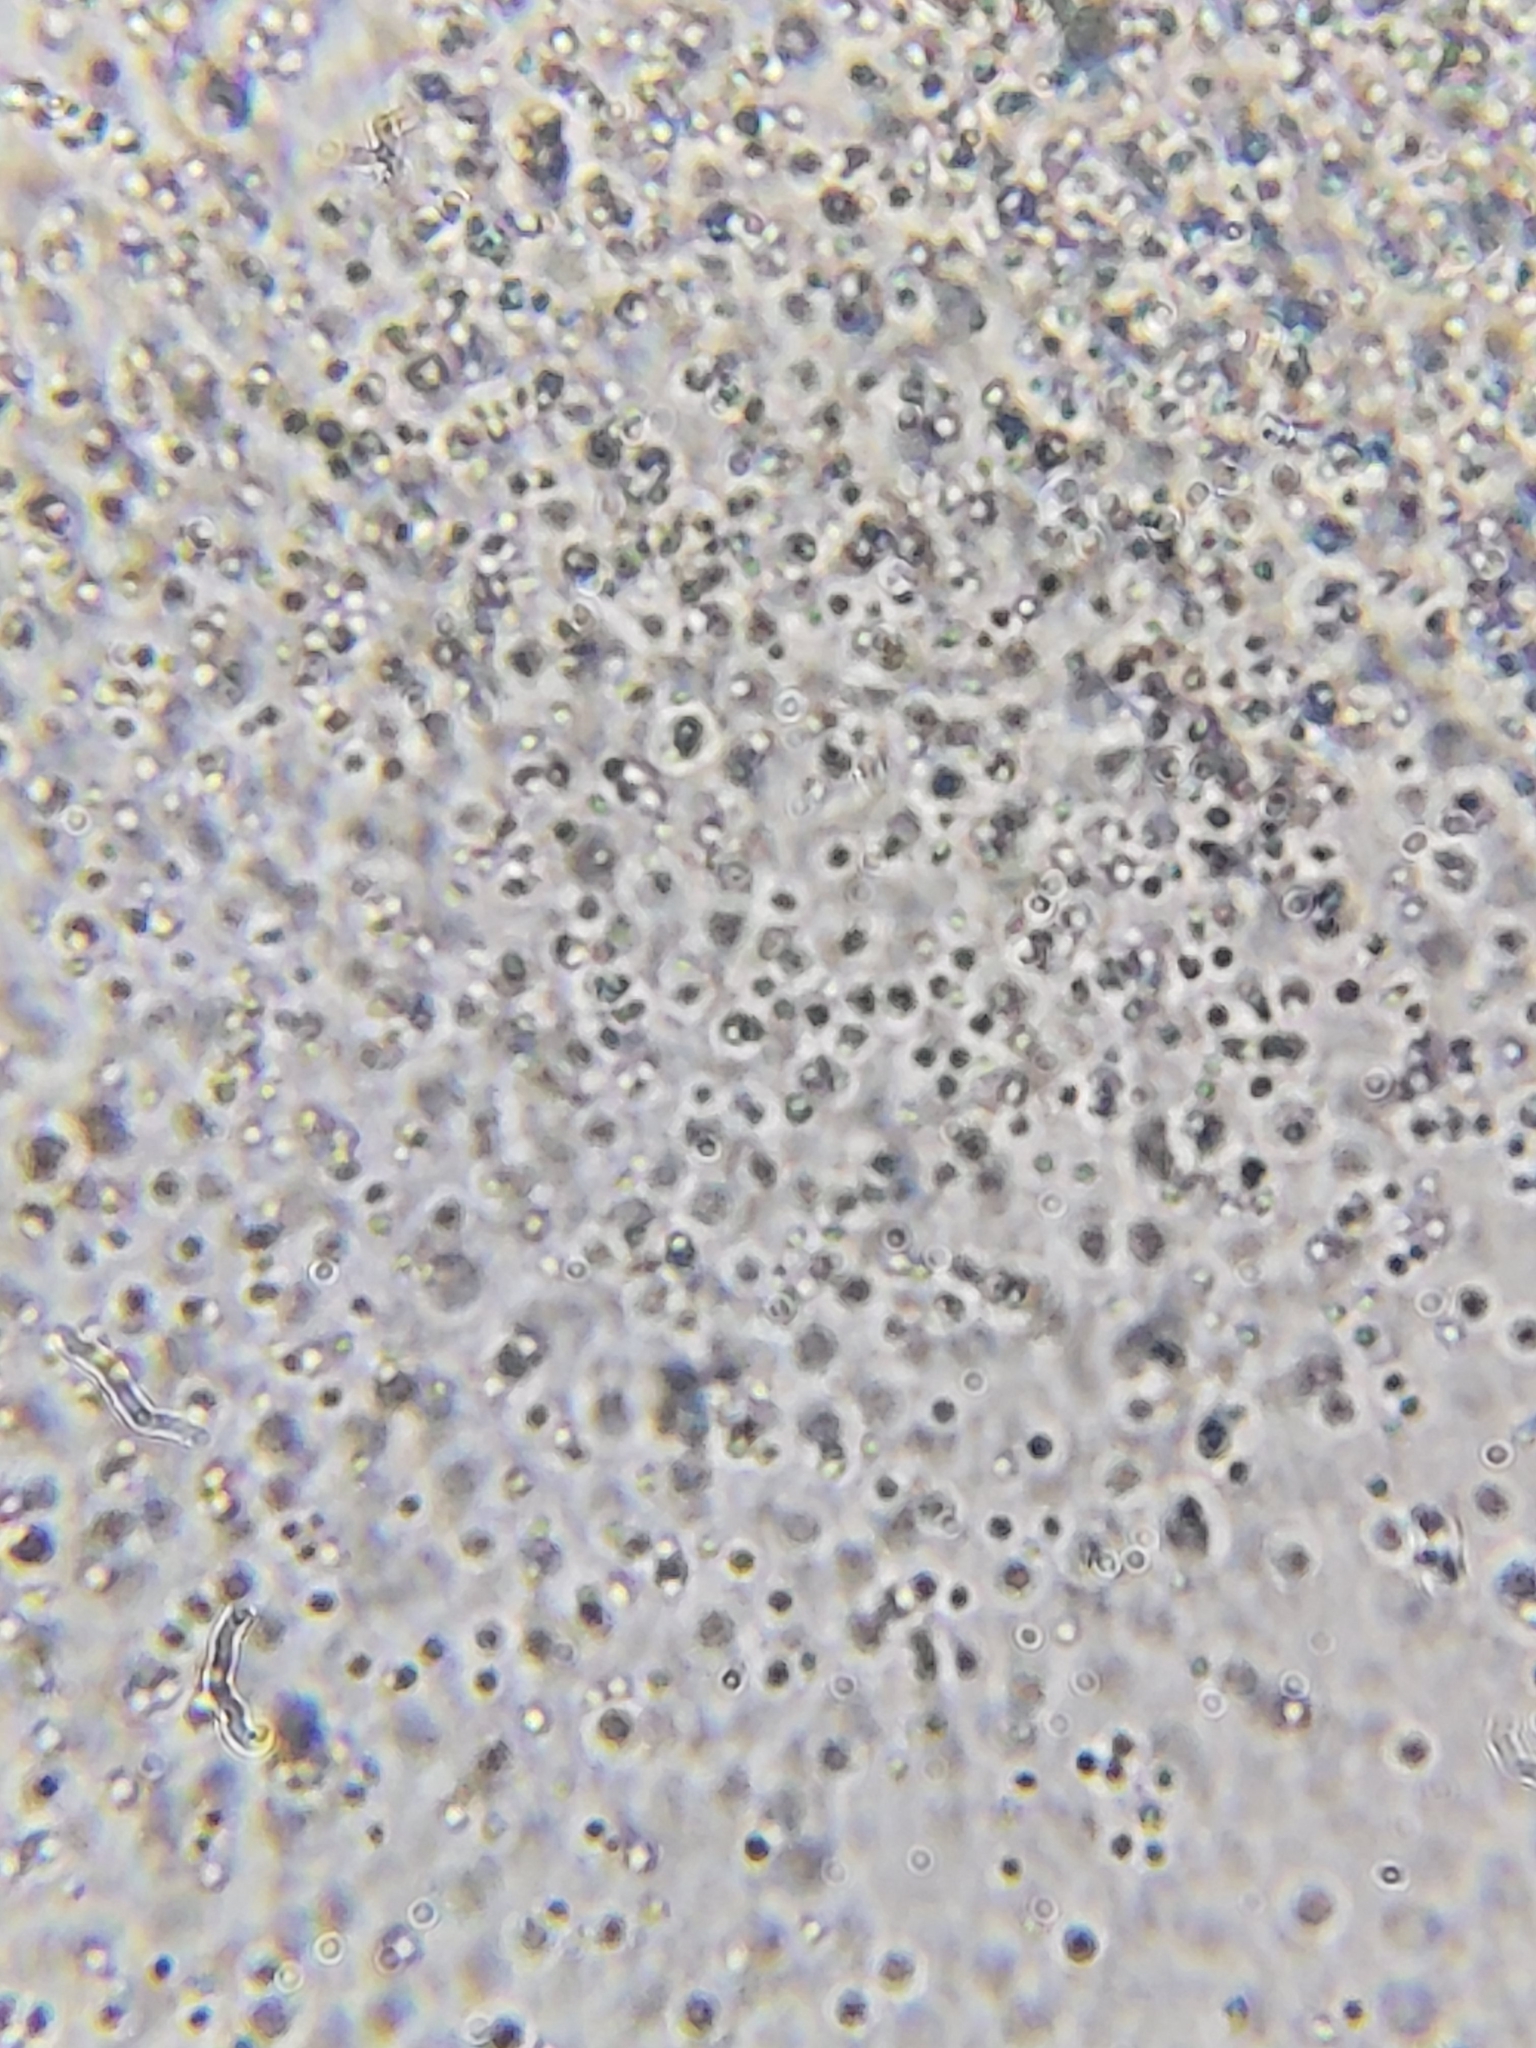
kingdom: Fungi
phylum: Ascomycota
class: Sordariomycetes
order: Hypocreales
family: Ophiocordycipitaceae
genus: Polycephalomyces
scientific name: Polycephalomyces tomentosus
